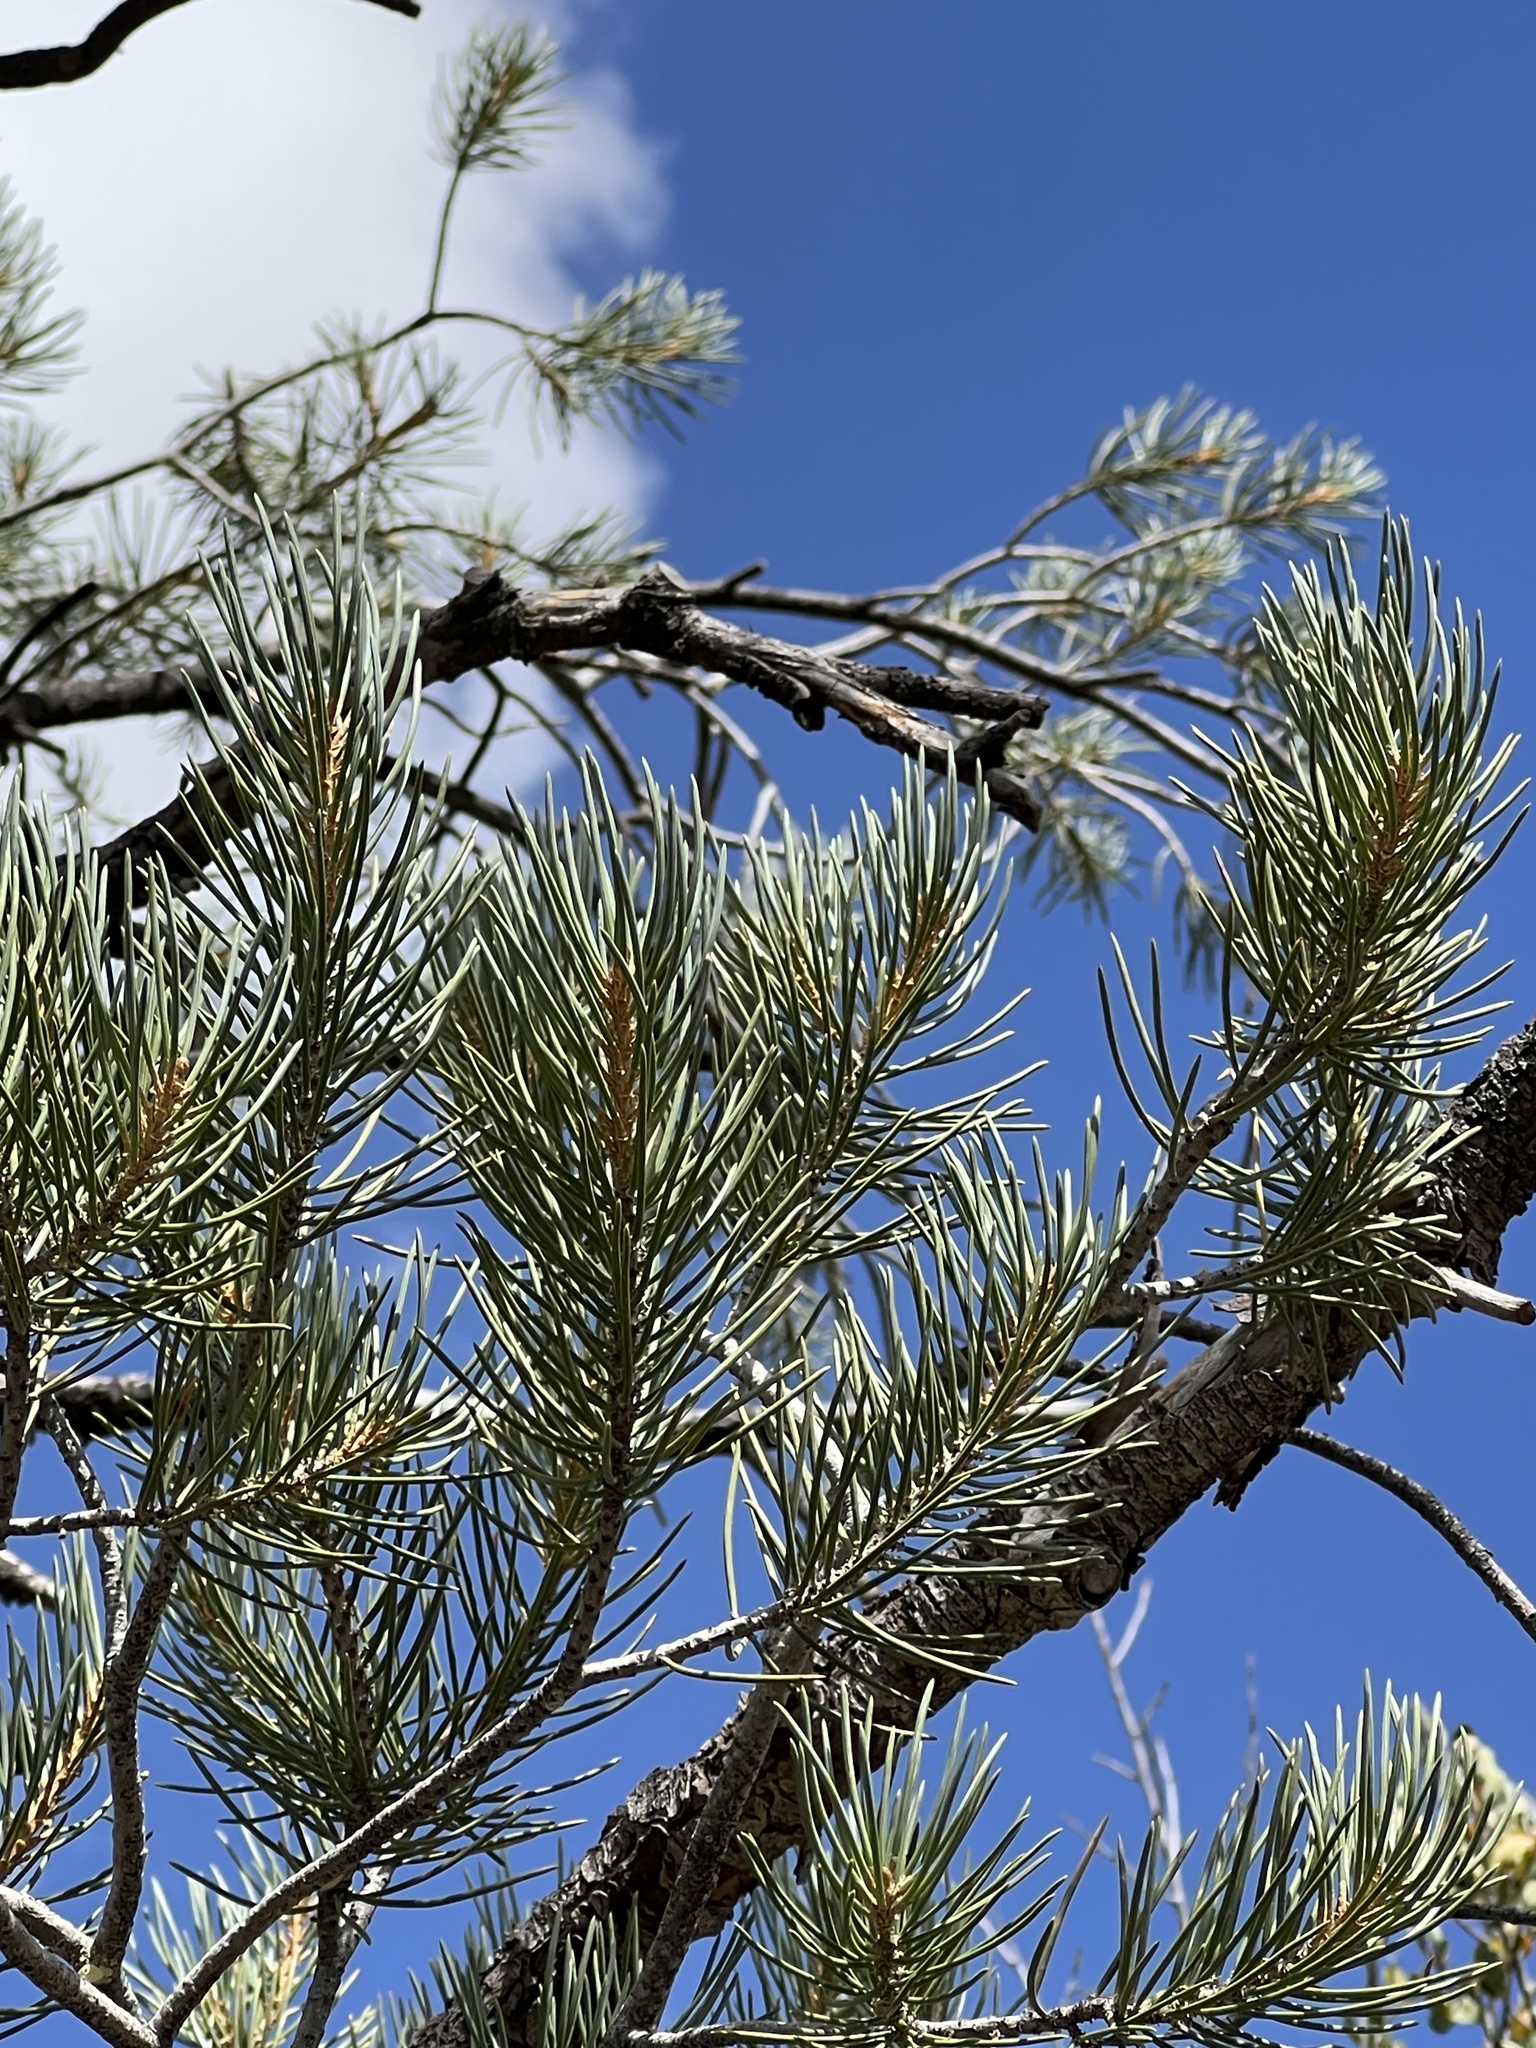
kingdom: Plantae
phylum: Tracheophyta
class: Pinopsida
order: Pinales
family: Pinaceae
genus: Pinus
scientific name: Pinus monophylla
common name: One-leaved nut pine
